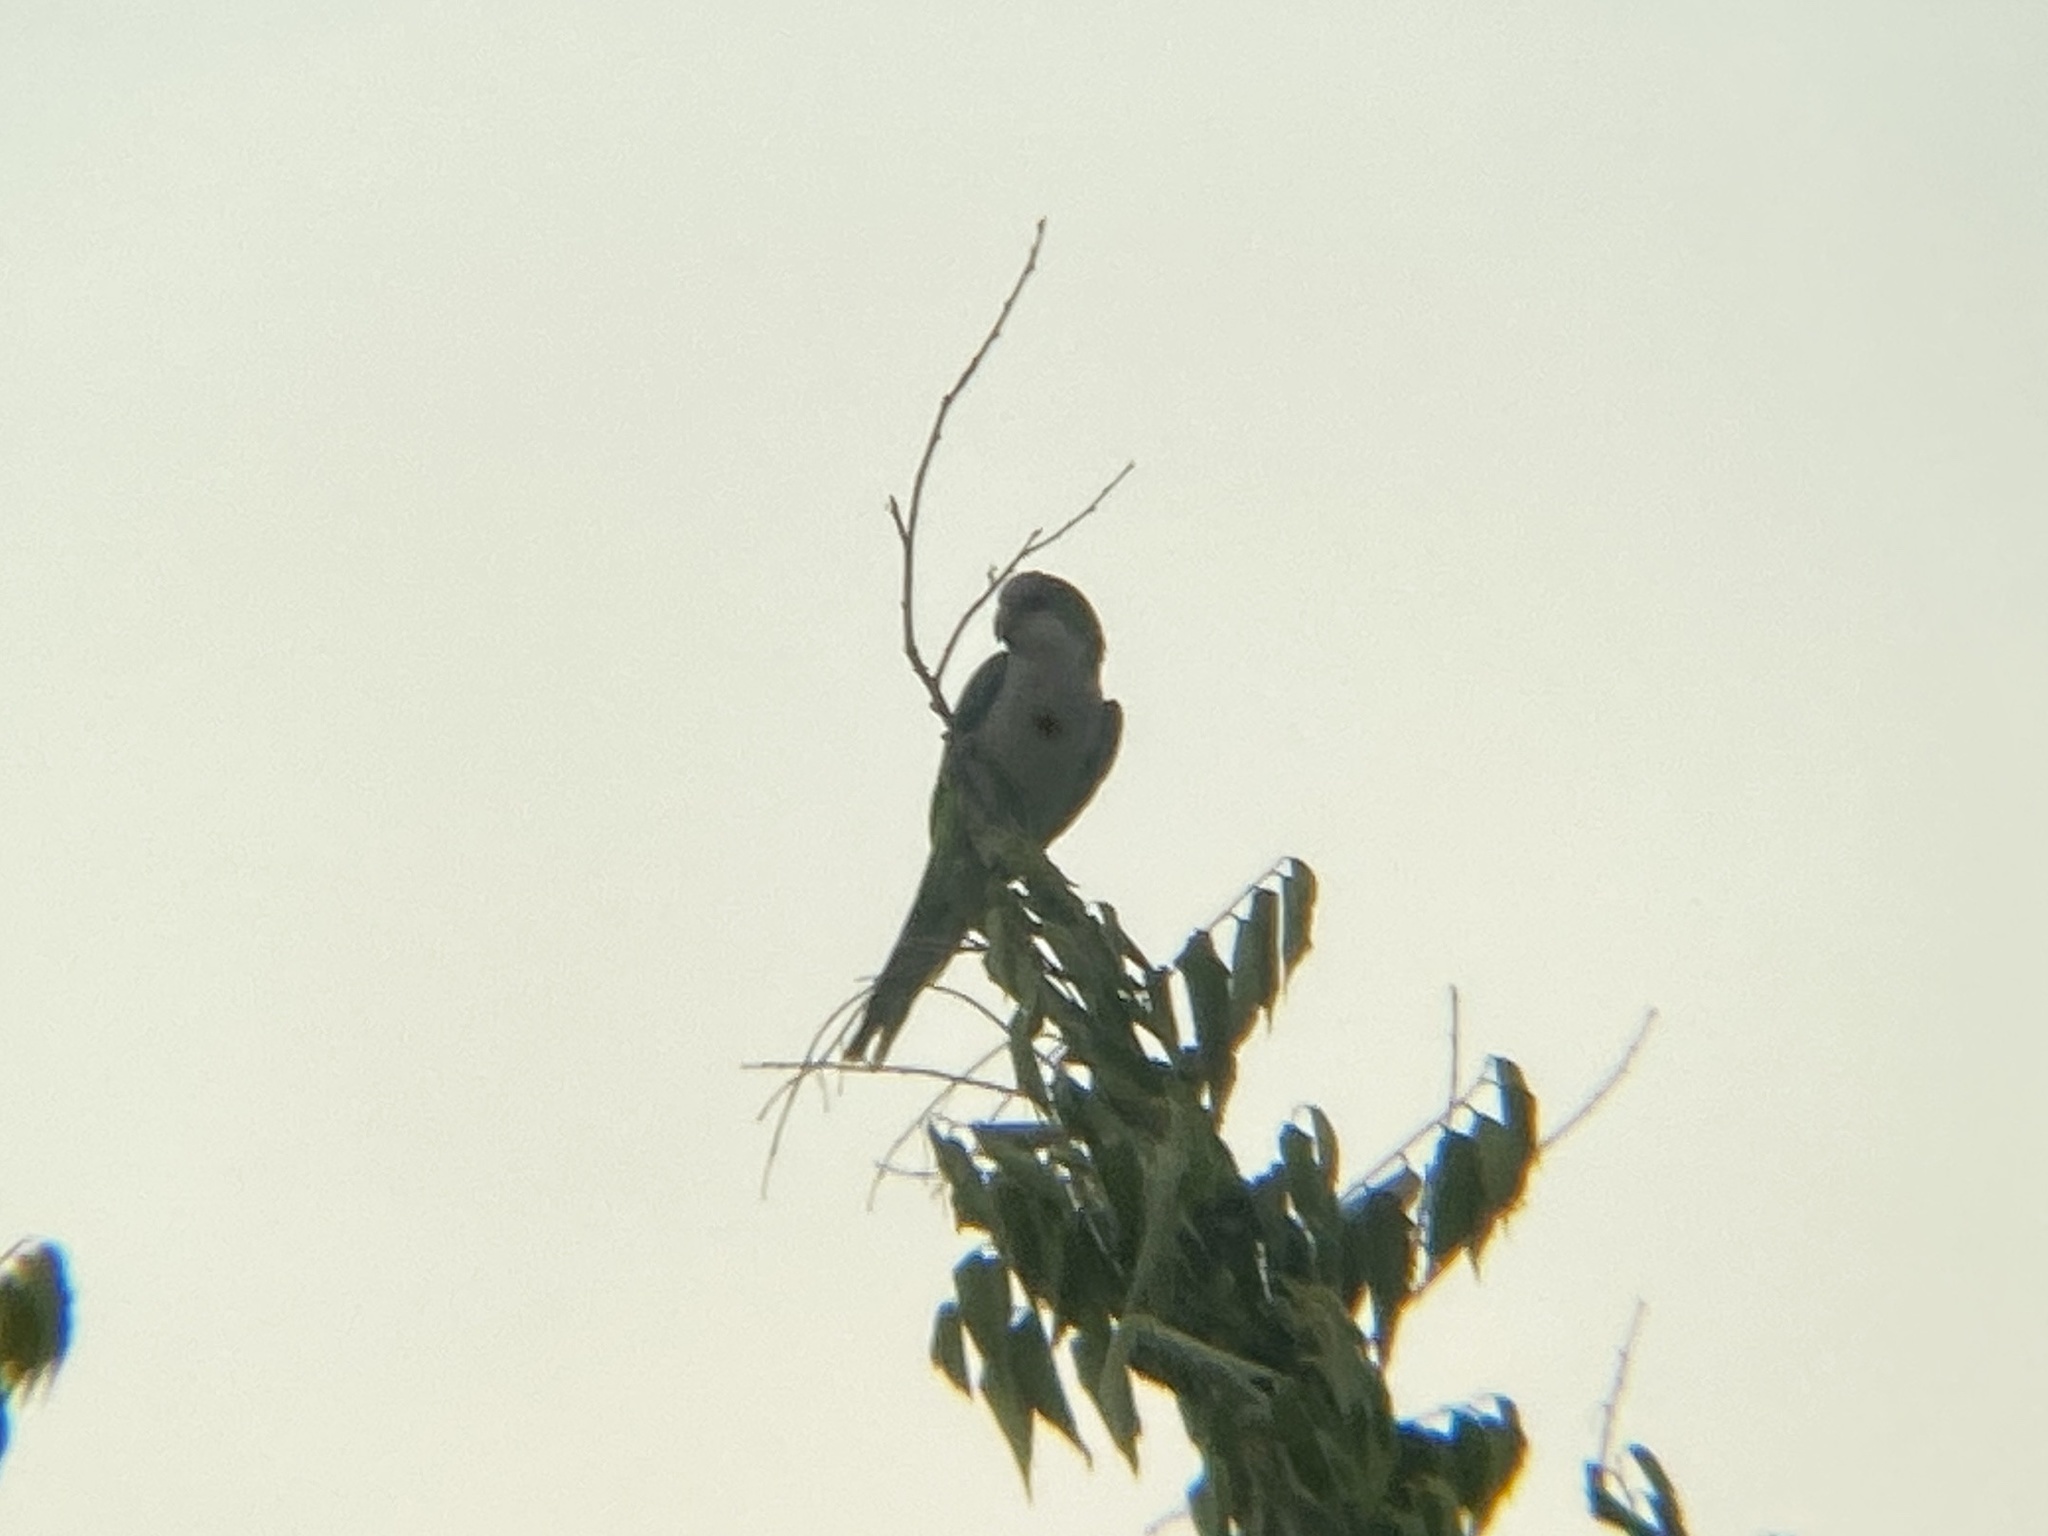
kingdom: Animalia
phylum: Chordata
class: Aves
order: Psittaciformes
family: Psittacidae
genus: Myiopsitta
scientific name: Myiopsitta monachus
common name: Monk parakeet
